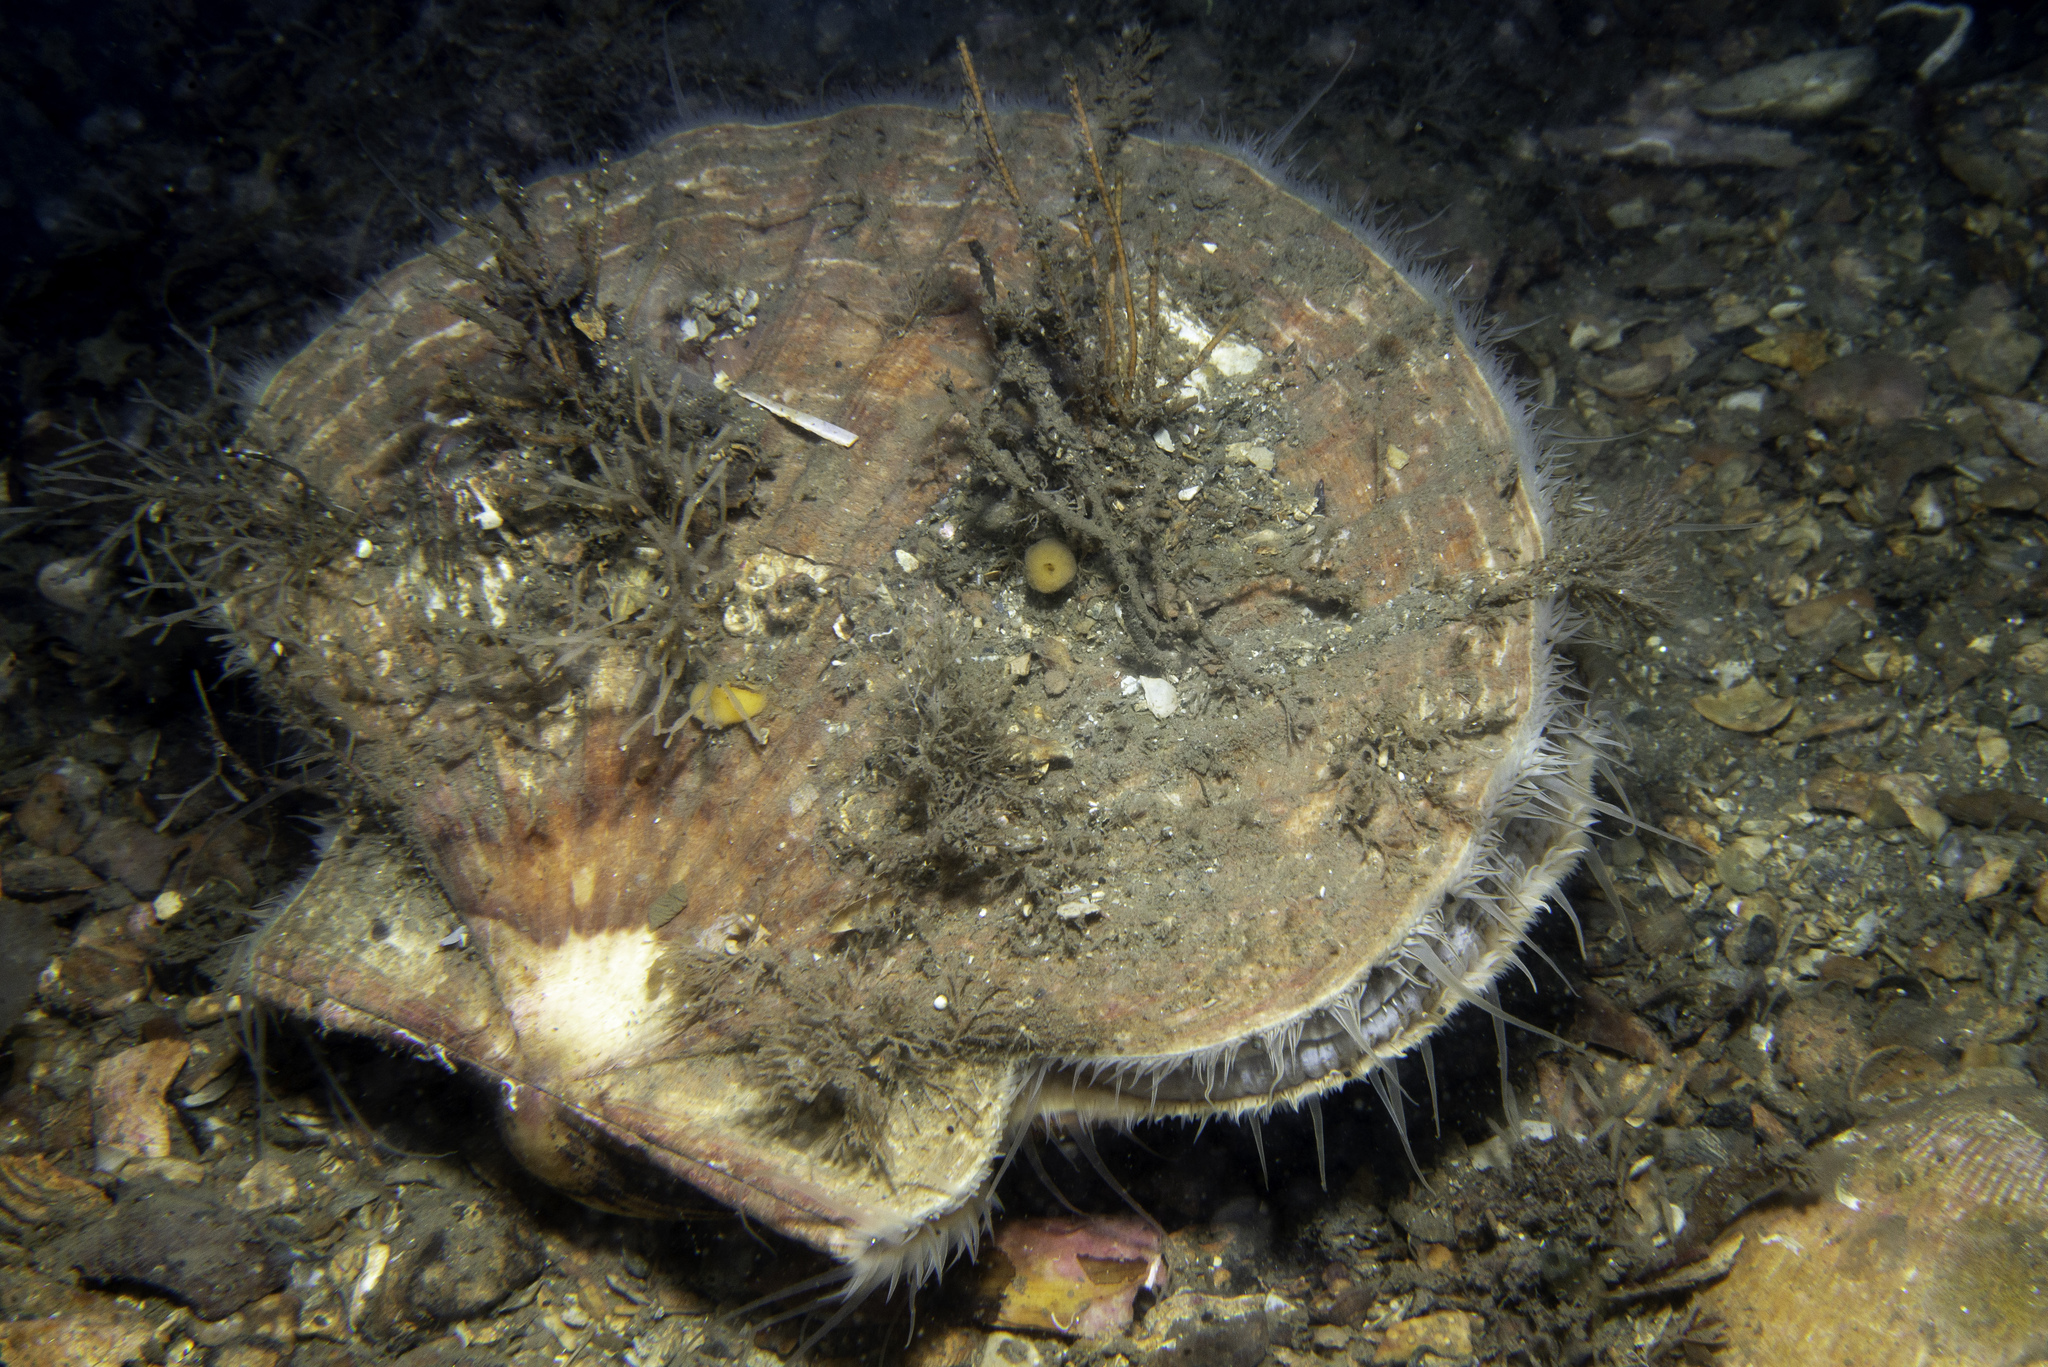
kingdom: Animalia
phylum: Mollusca
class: Bivalvia
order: Pectinida
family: Pectinidae
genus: Pecten
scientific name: Pecten maximus
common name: Great scallop
